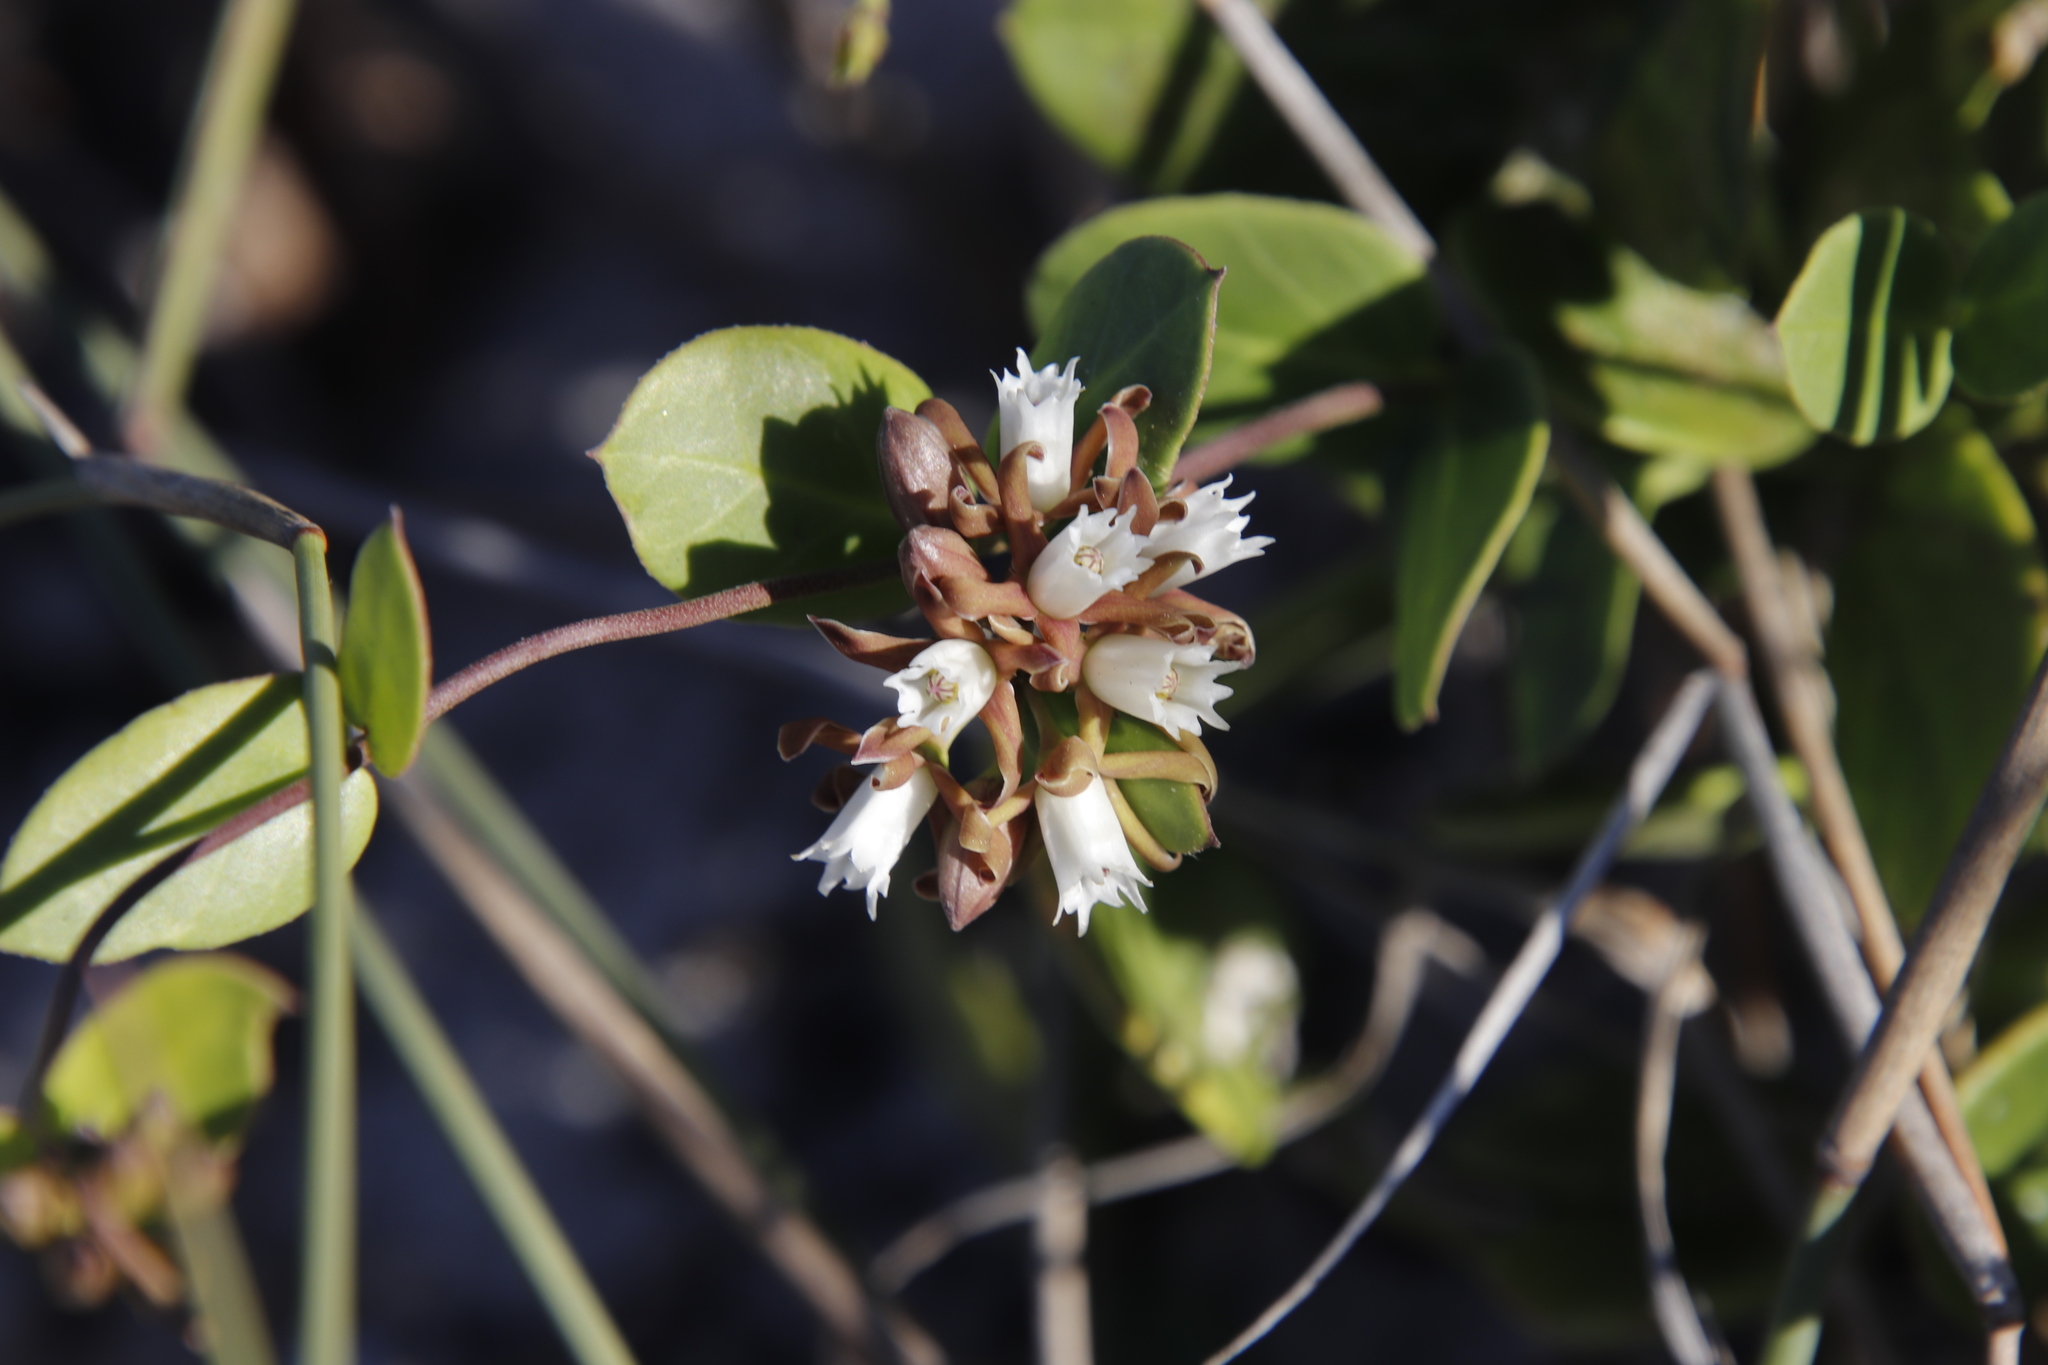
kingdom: Plantae
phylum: Tracheophyta
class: Magnoliopsida
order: Gentianales
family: Apocynaceae
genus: Cynanchum
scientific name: Cynanchum africanum
